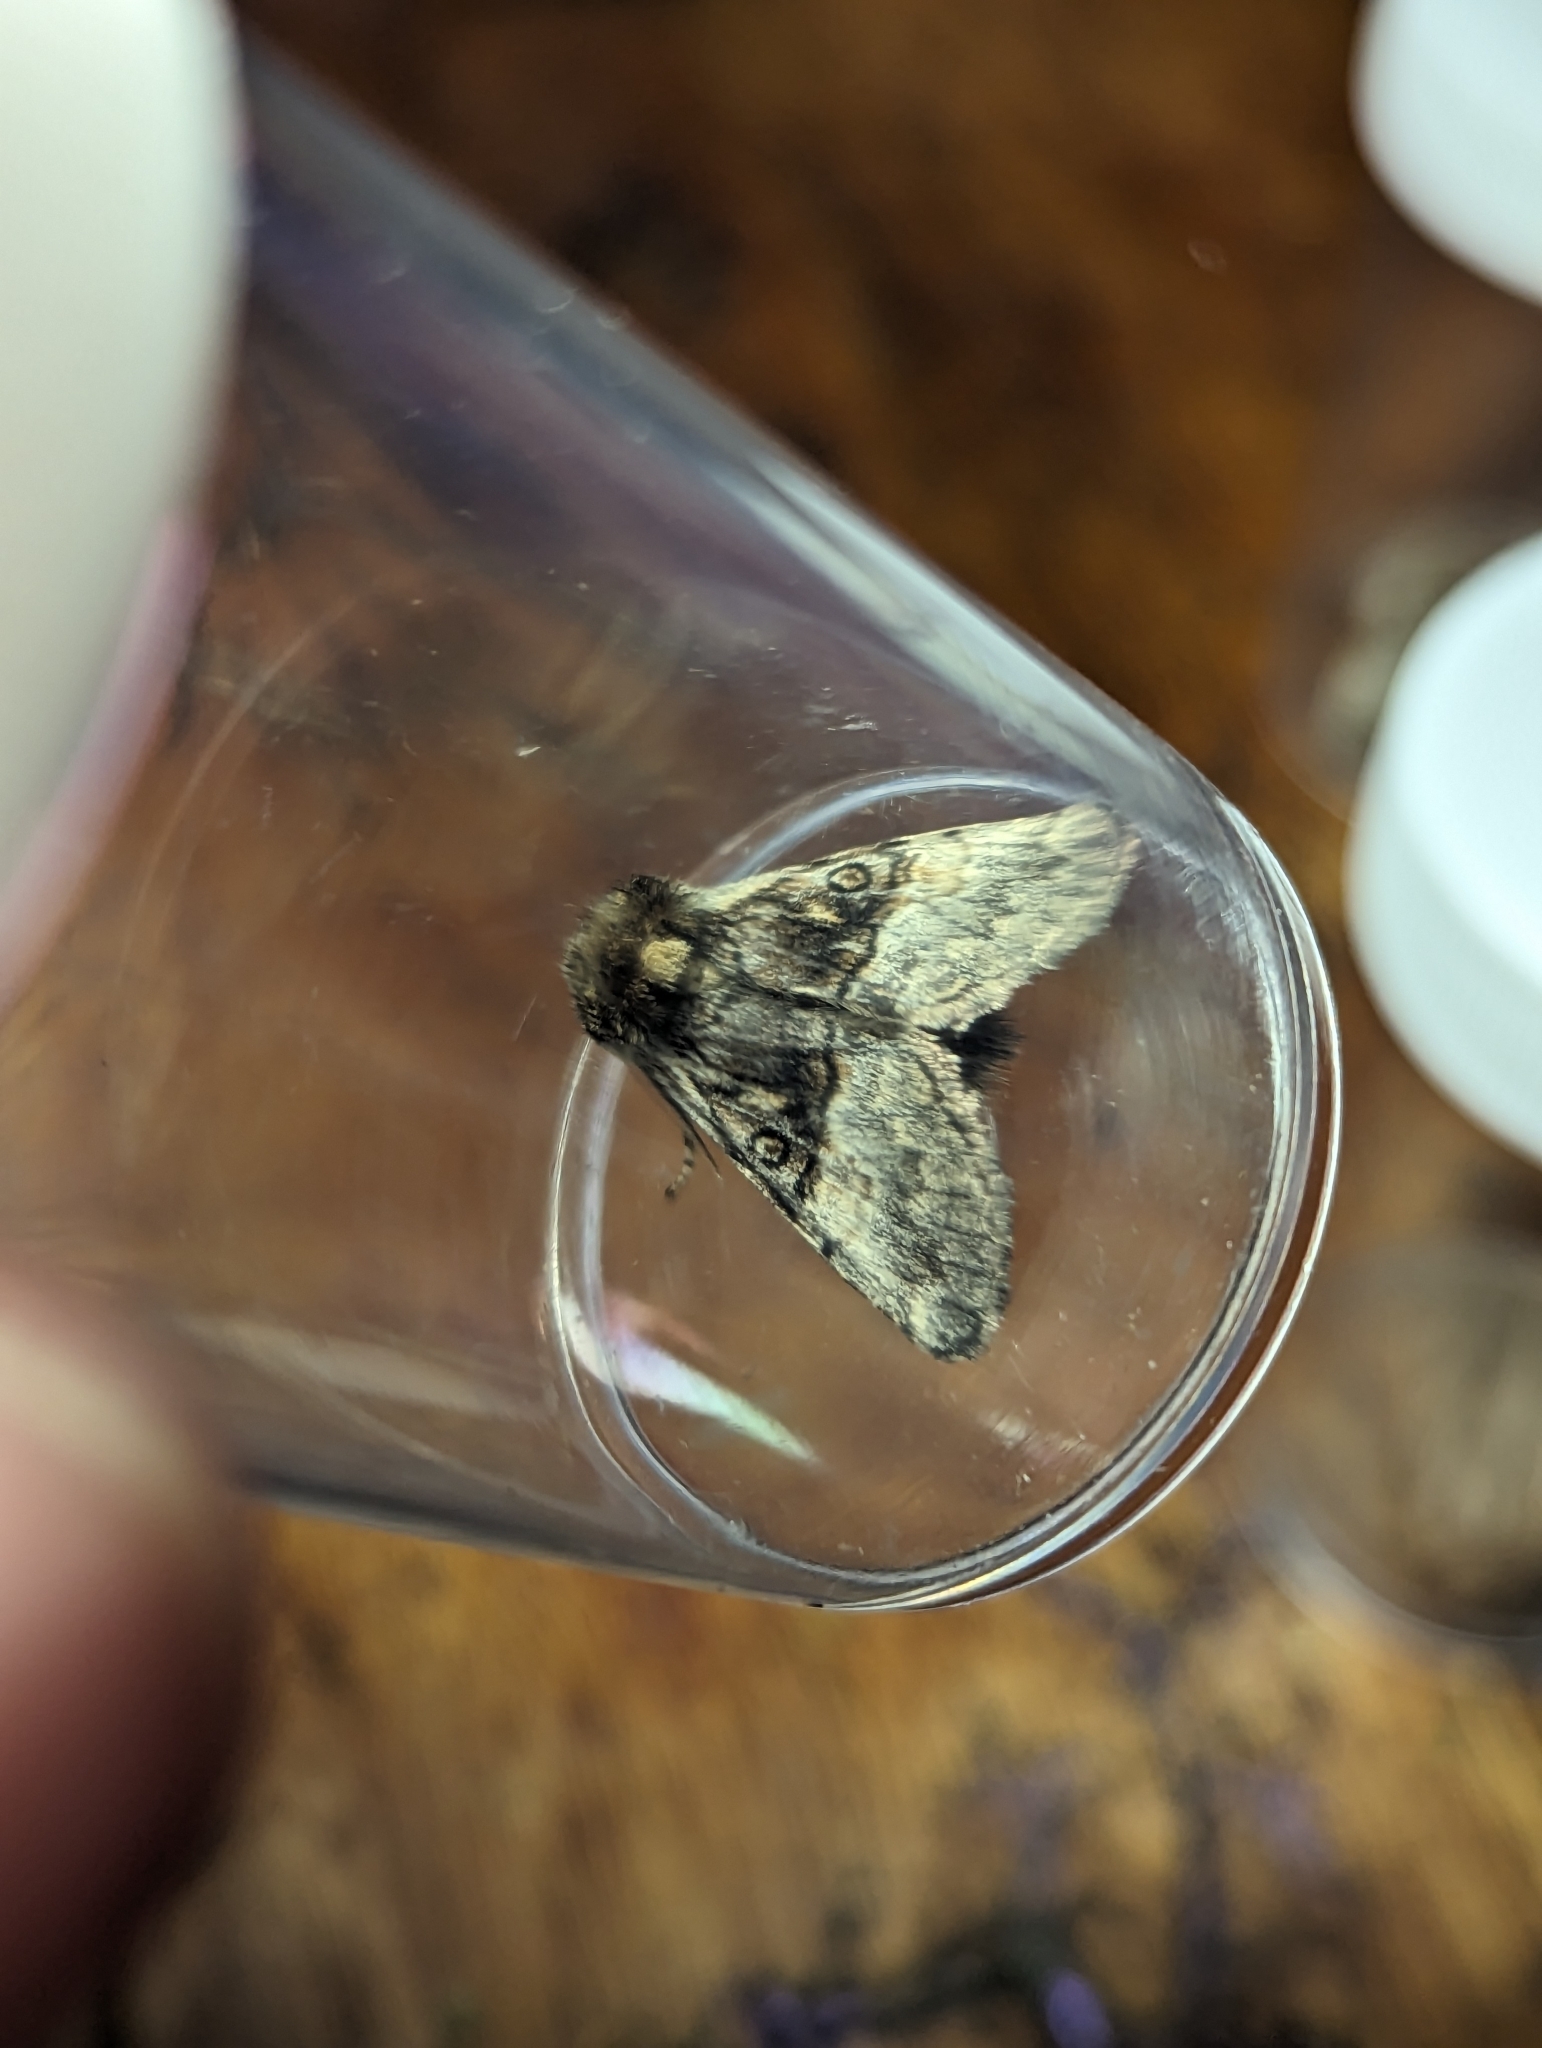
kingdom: Animalia
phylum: Arthropoda
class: Insecta
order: Lepidoptera
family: Noctuidae
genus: Colocasia
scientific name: Colocasia coryli
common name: Nut-tree tussock
